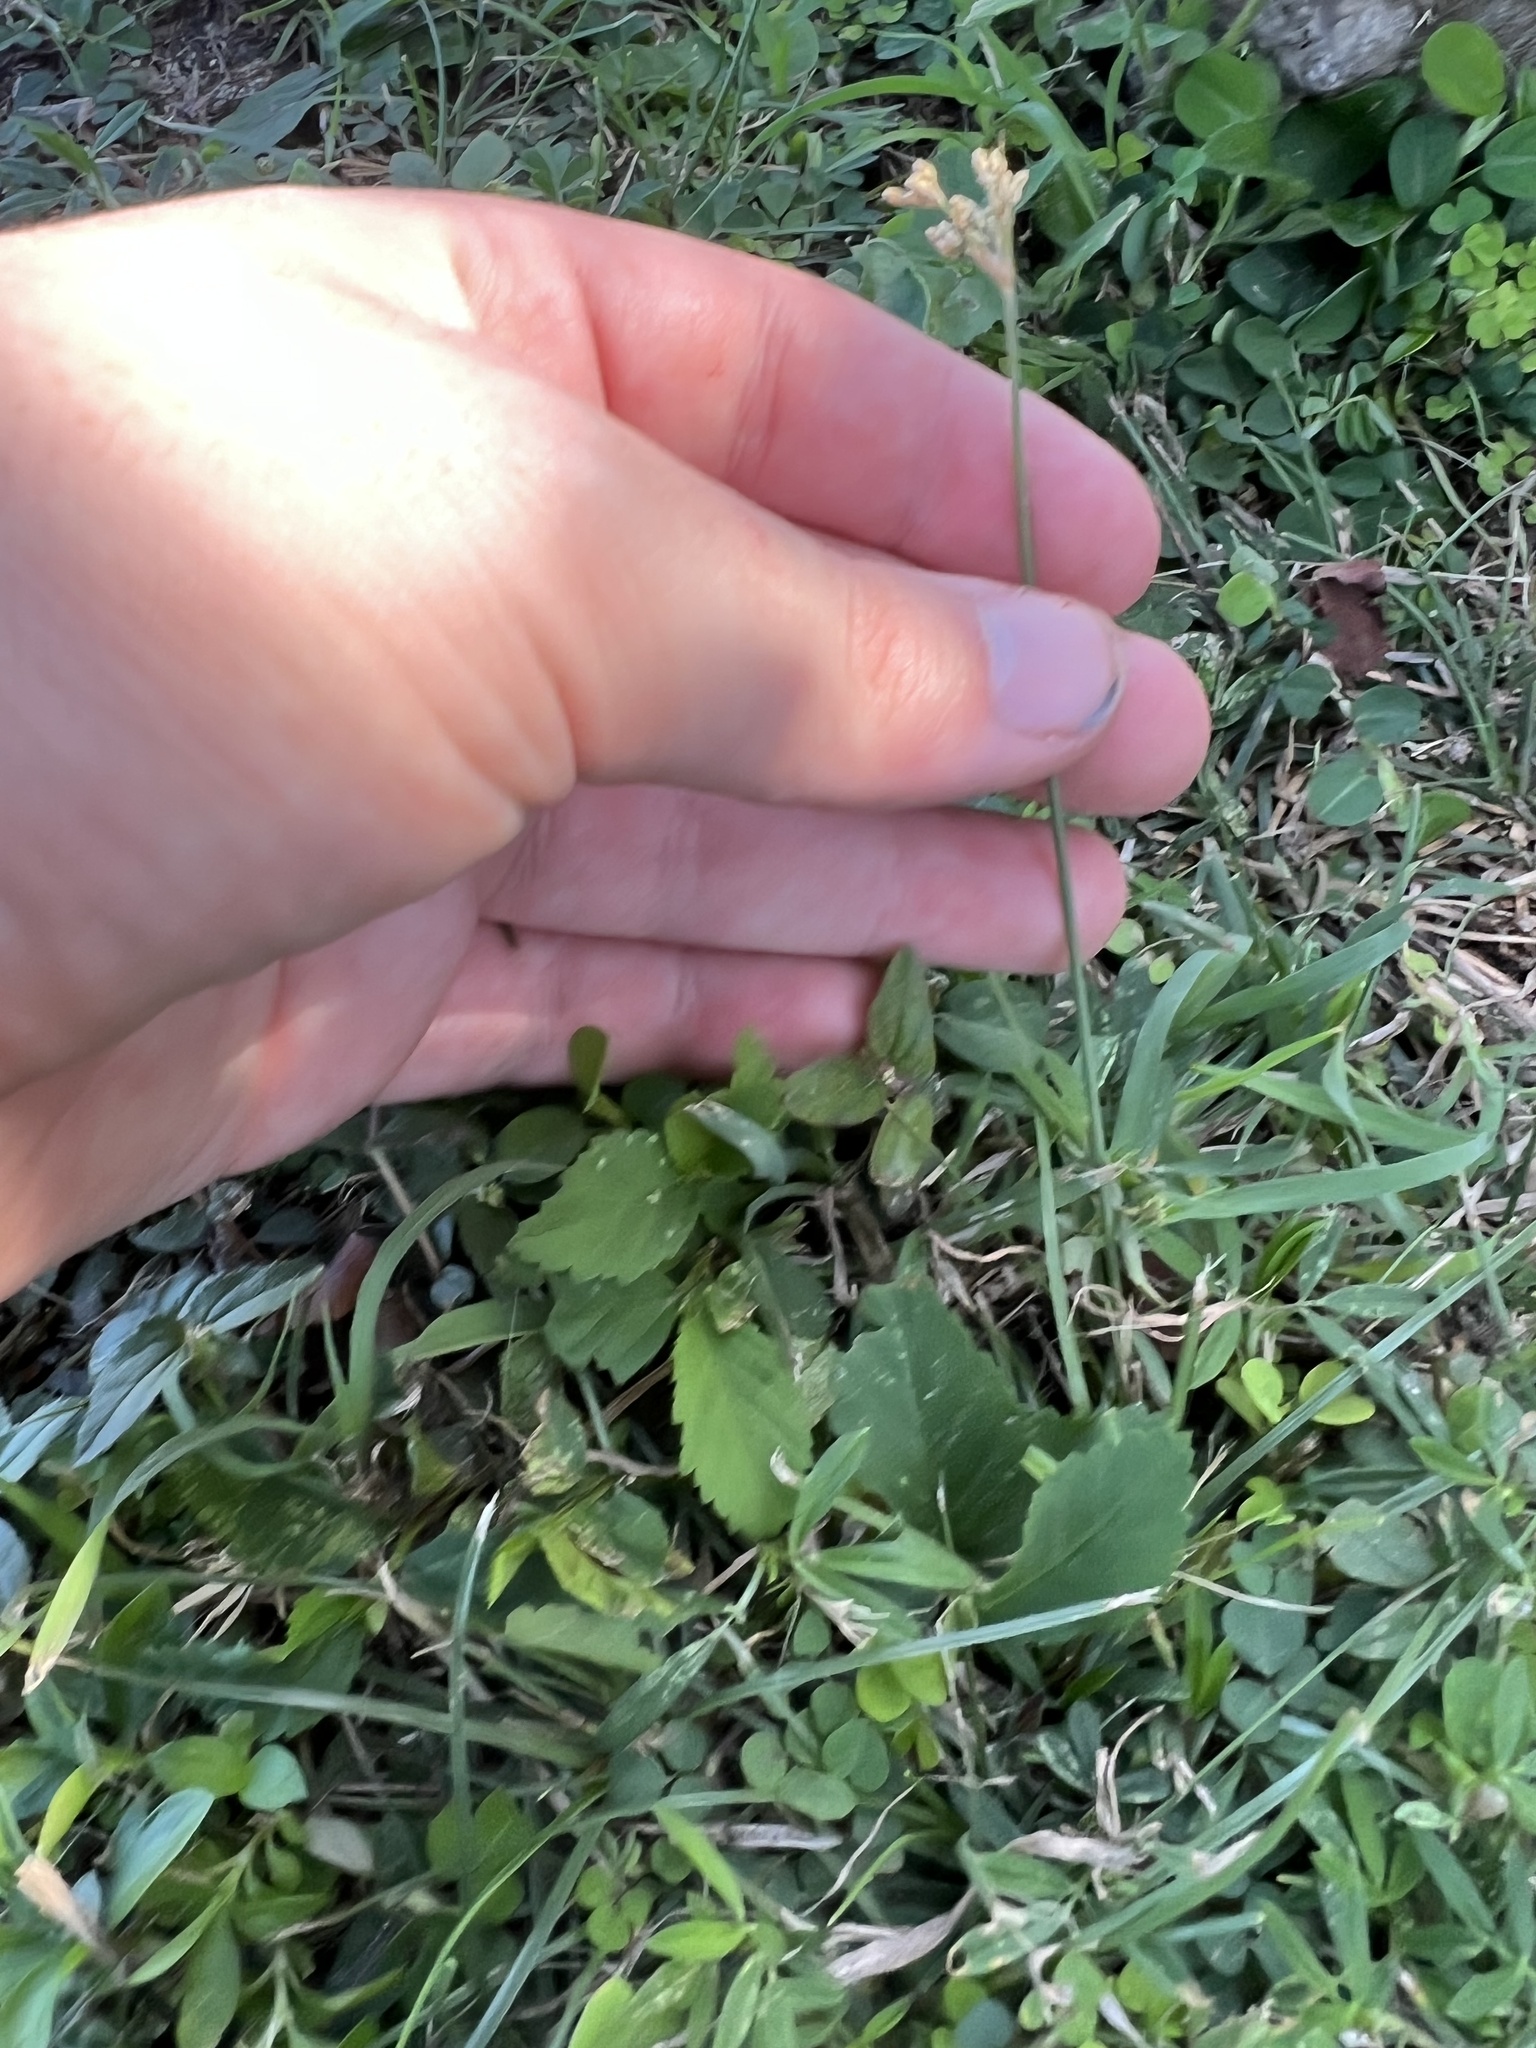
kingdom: Plantae
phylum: Tracheophyta
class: Liliopsida
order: Poales
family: Cyperaceae
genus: Fimbristylis
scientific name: Fimbristylis cymosa
